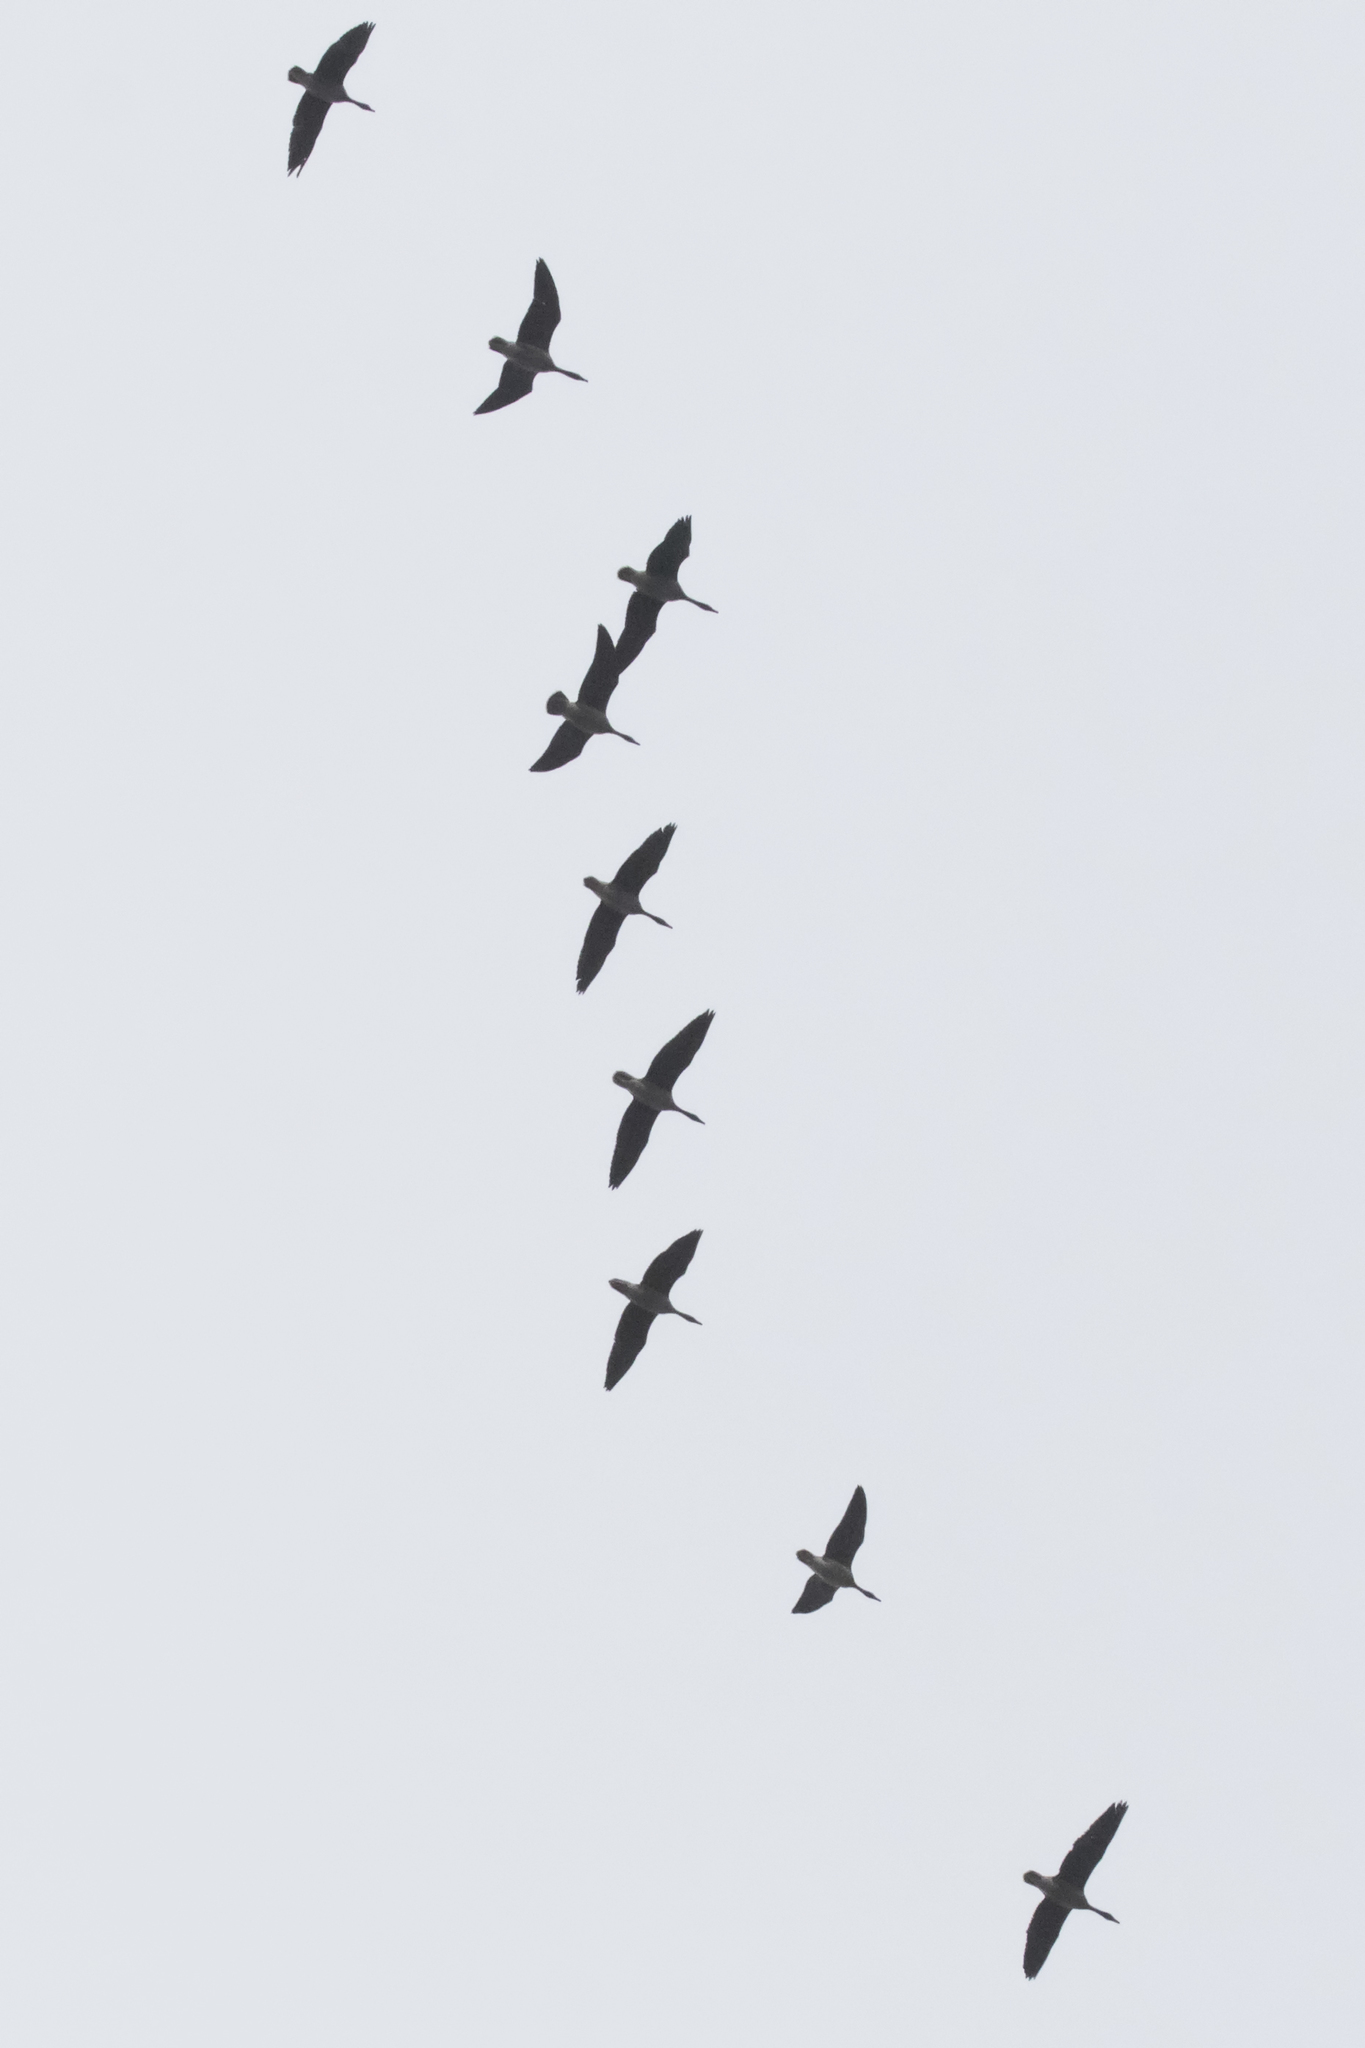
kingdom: Animalia
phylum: Chordata
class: Aves
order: Anseriformes
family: Anatidae
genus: Anser
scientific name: Anser fabalis
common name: Bean goose
